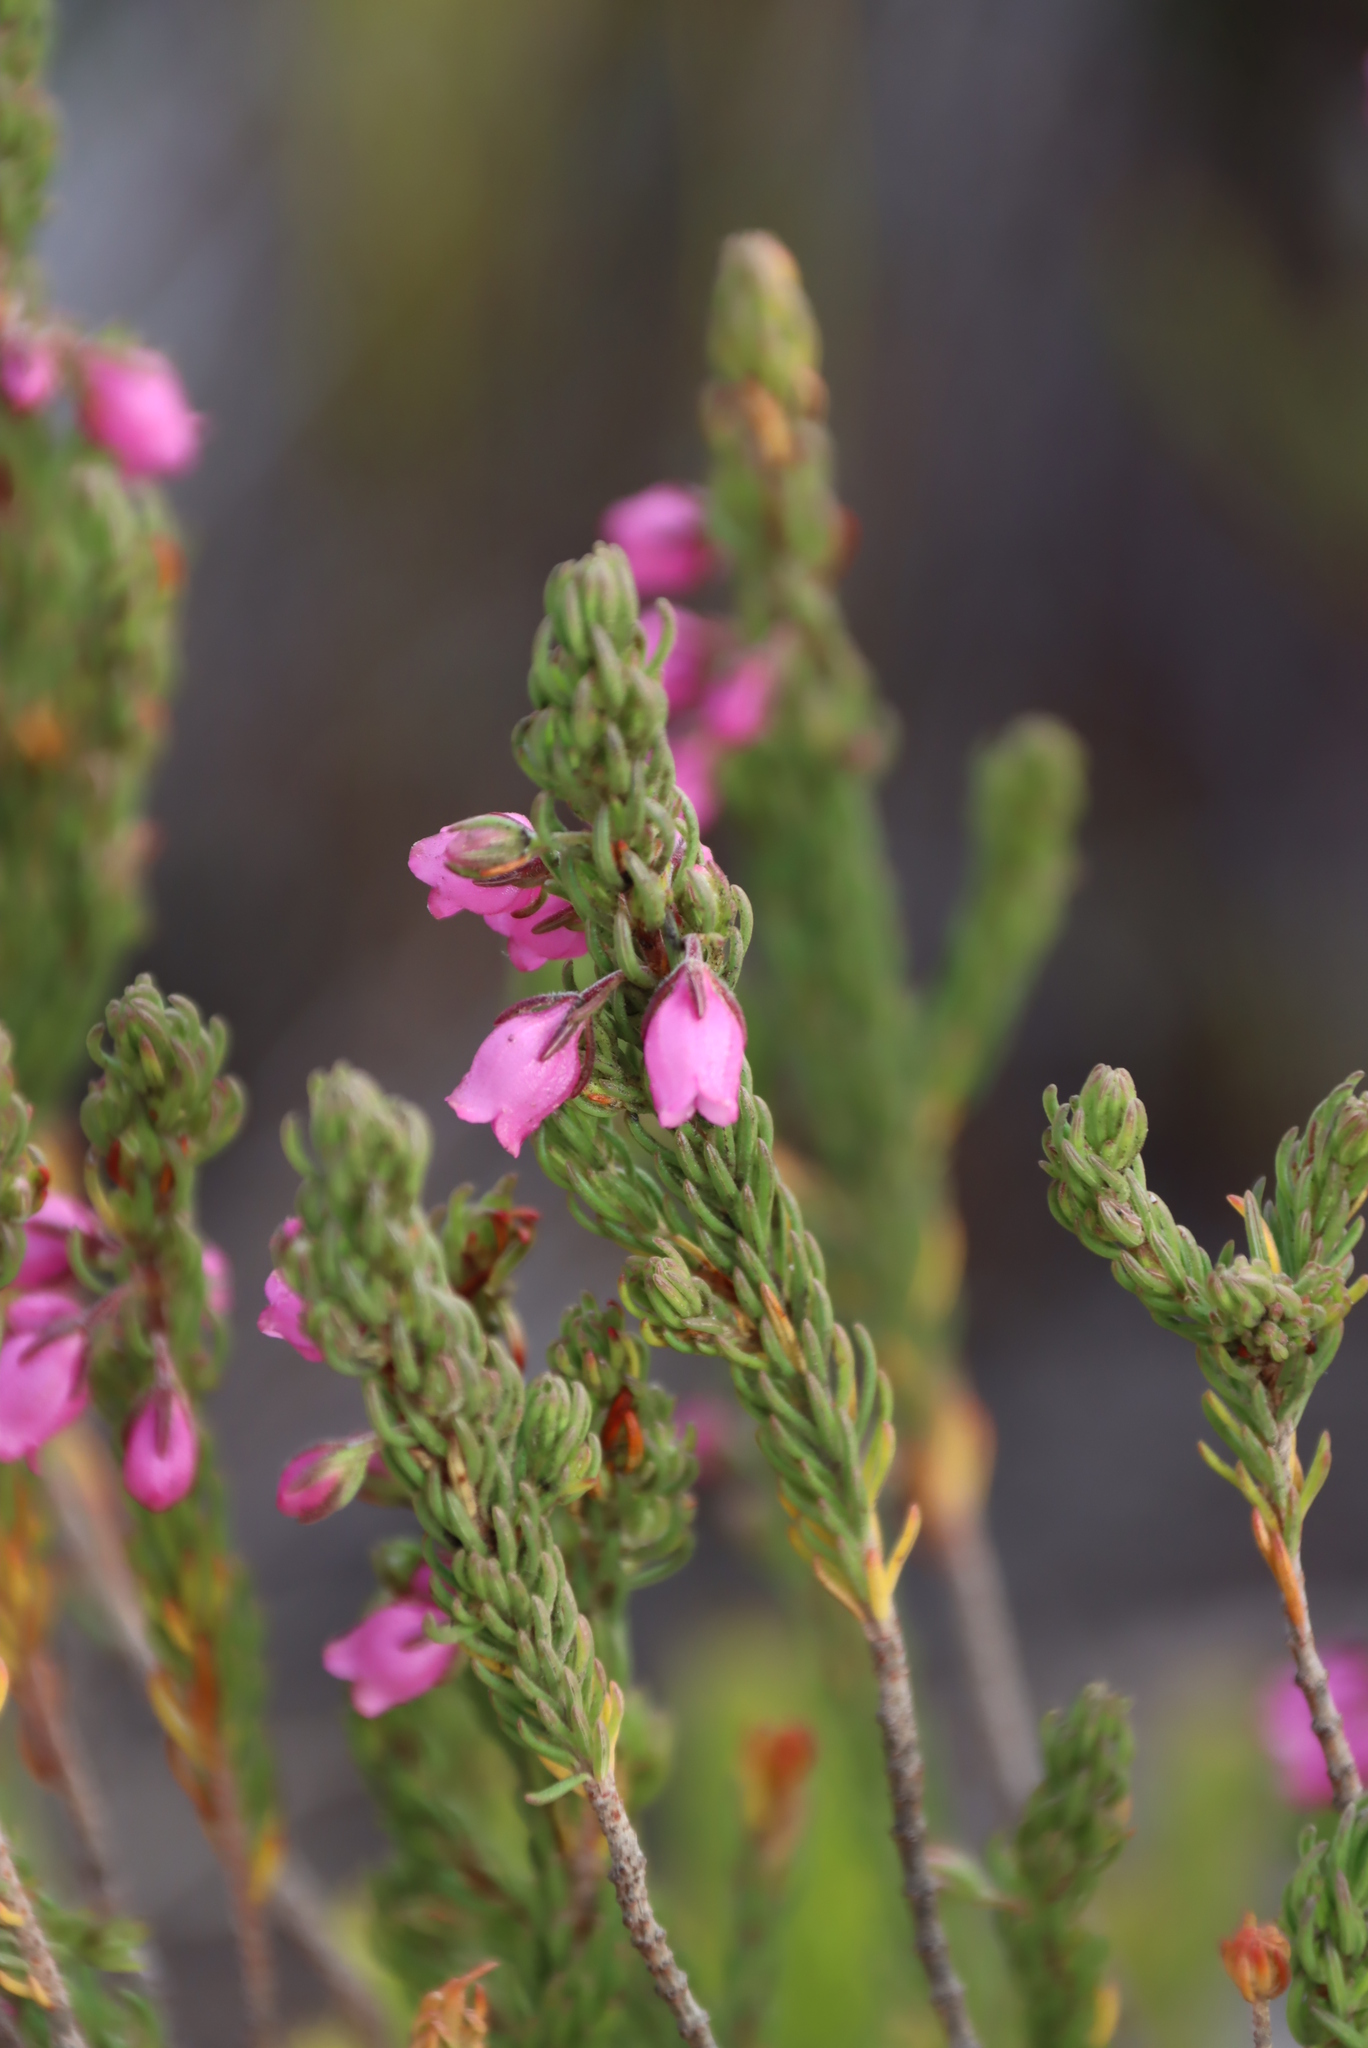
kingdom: Plantae
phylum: Tracheophyta
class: Magnoliopsida
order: Ericales
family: Ericaceae
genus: Erica
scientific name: Erica viscaria
